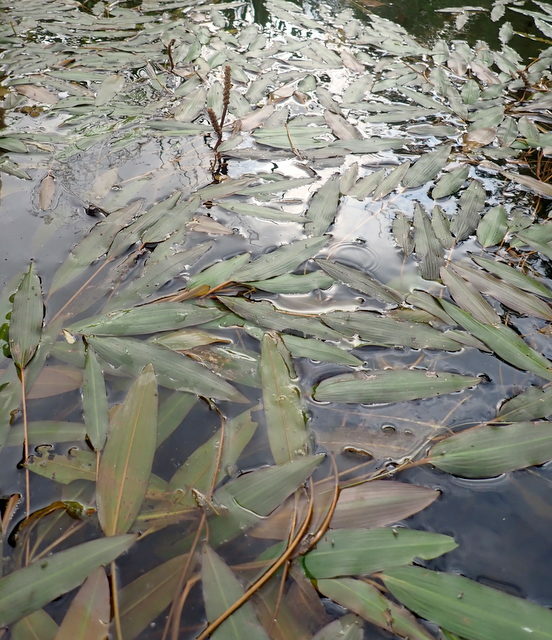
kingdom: Plantae
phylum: Tracheophyta
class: Liliopsida
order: Alismatales
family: Potamogetonaceae
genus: Potamogeton
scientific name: Potamogeton nodosus
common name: Loddon pondweed
